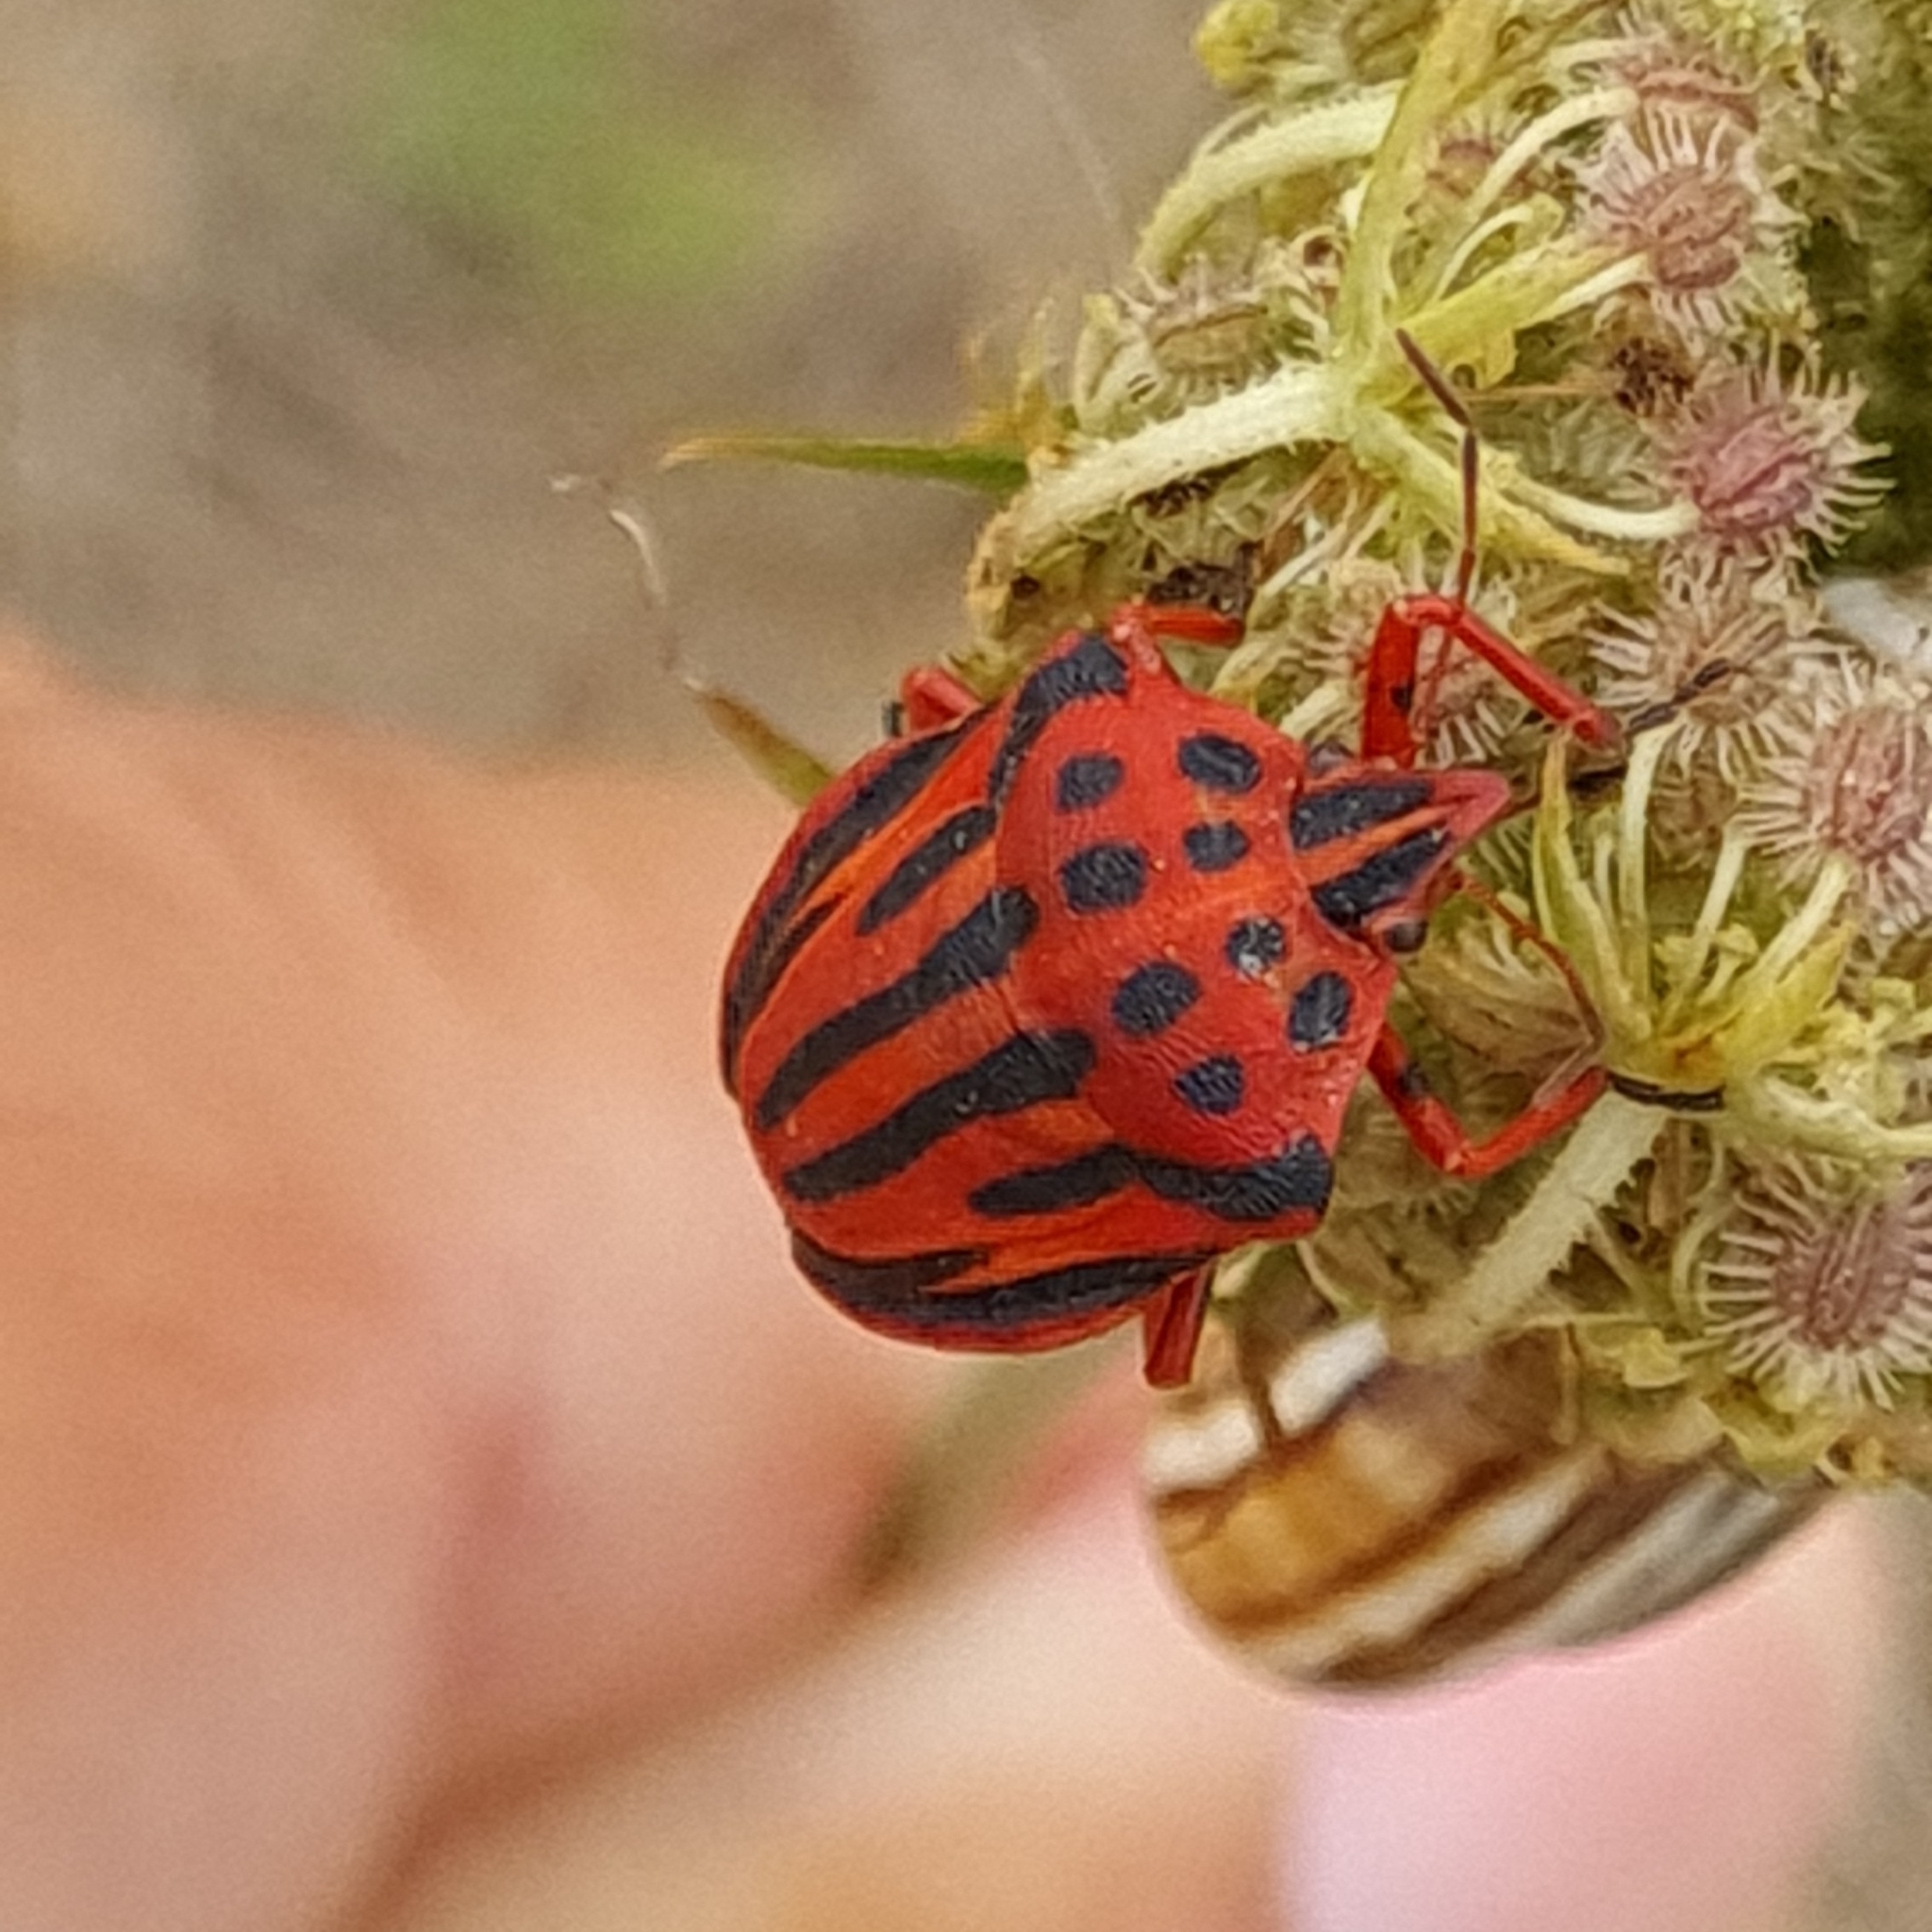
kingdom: Animalia
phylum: Arthropoda
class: Insecta
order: Hemiptera
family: Pentatomidae
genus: Graphosoma
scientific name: Graphosoma semipunctatum
